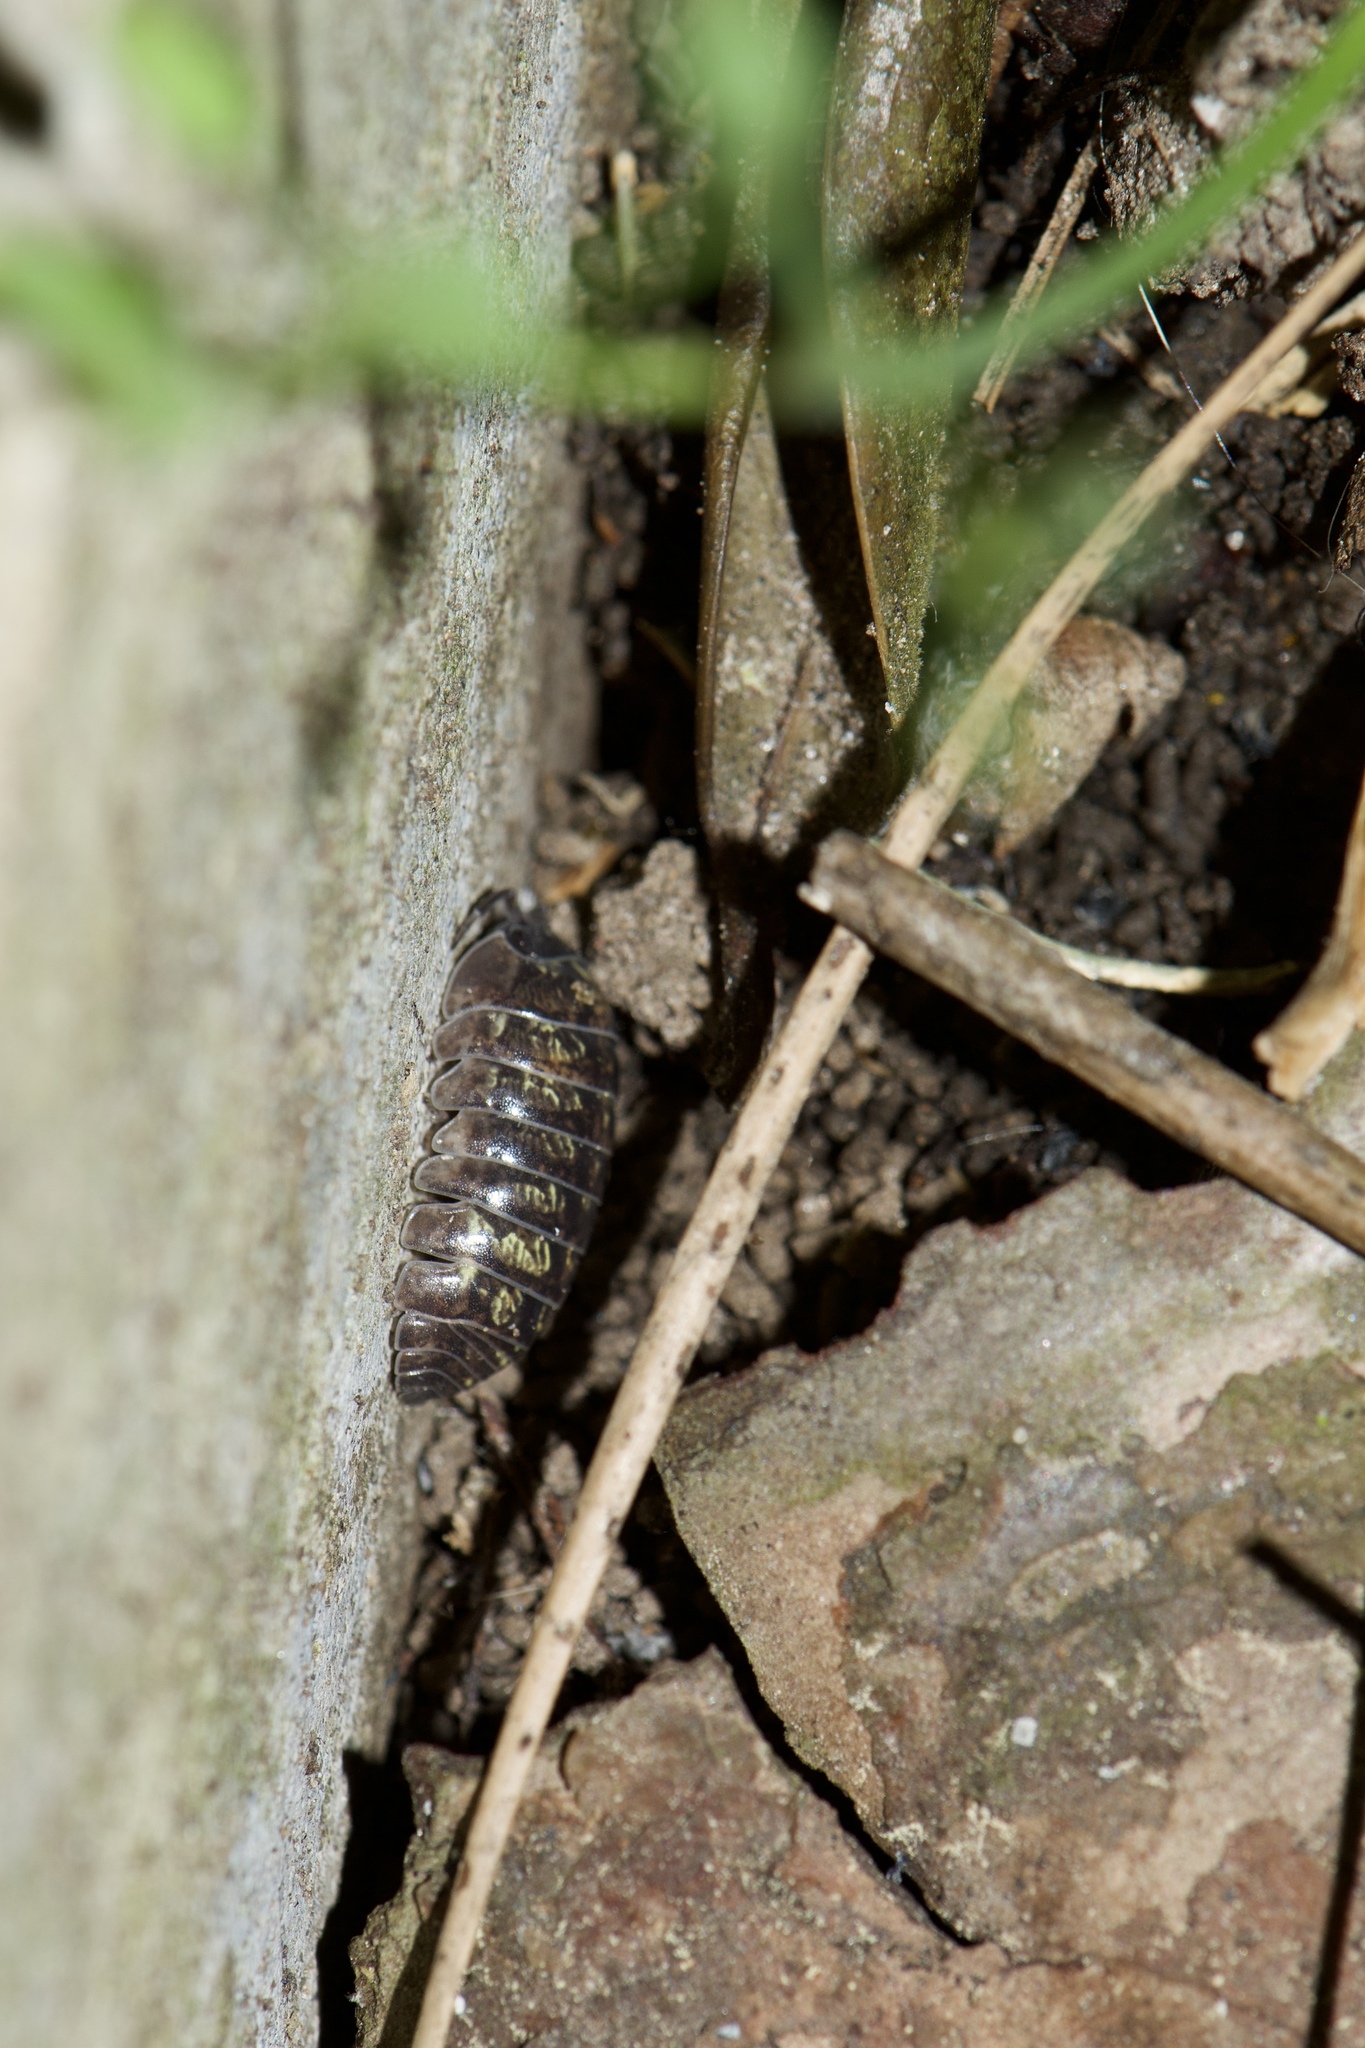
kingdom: Animalia
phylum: Arthropoda
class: Malacostraca
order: Isopoda
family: Armadillidiidae
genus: Armadillidium
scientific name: Armadillidium vulgare
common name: Common pill woodlouse
